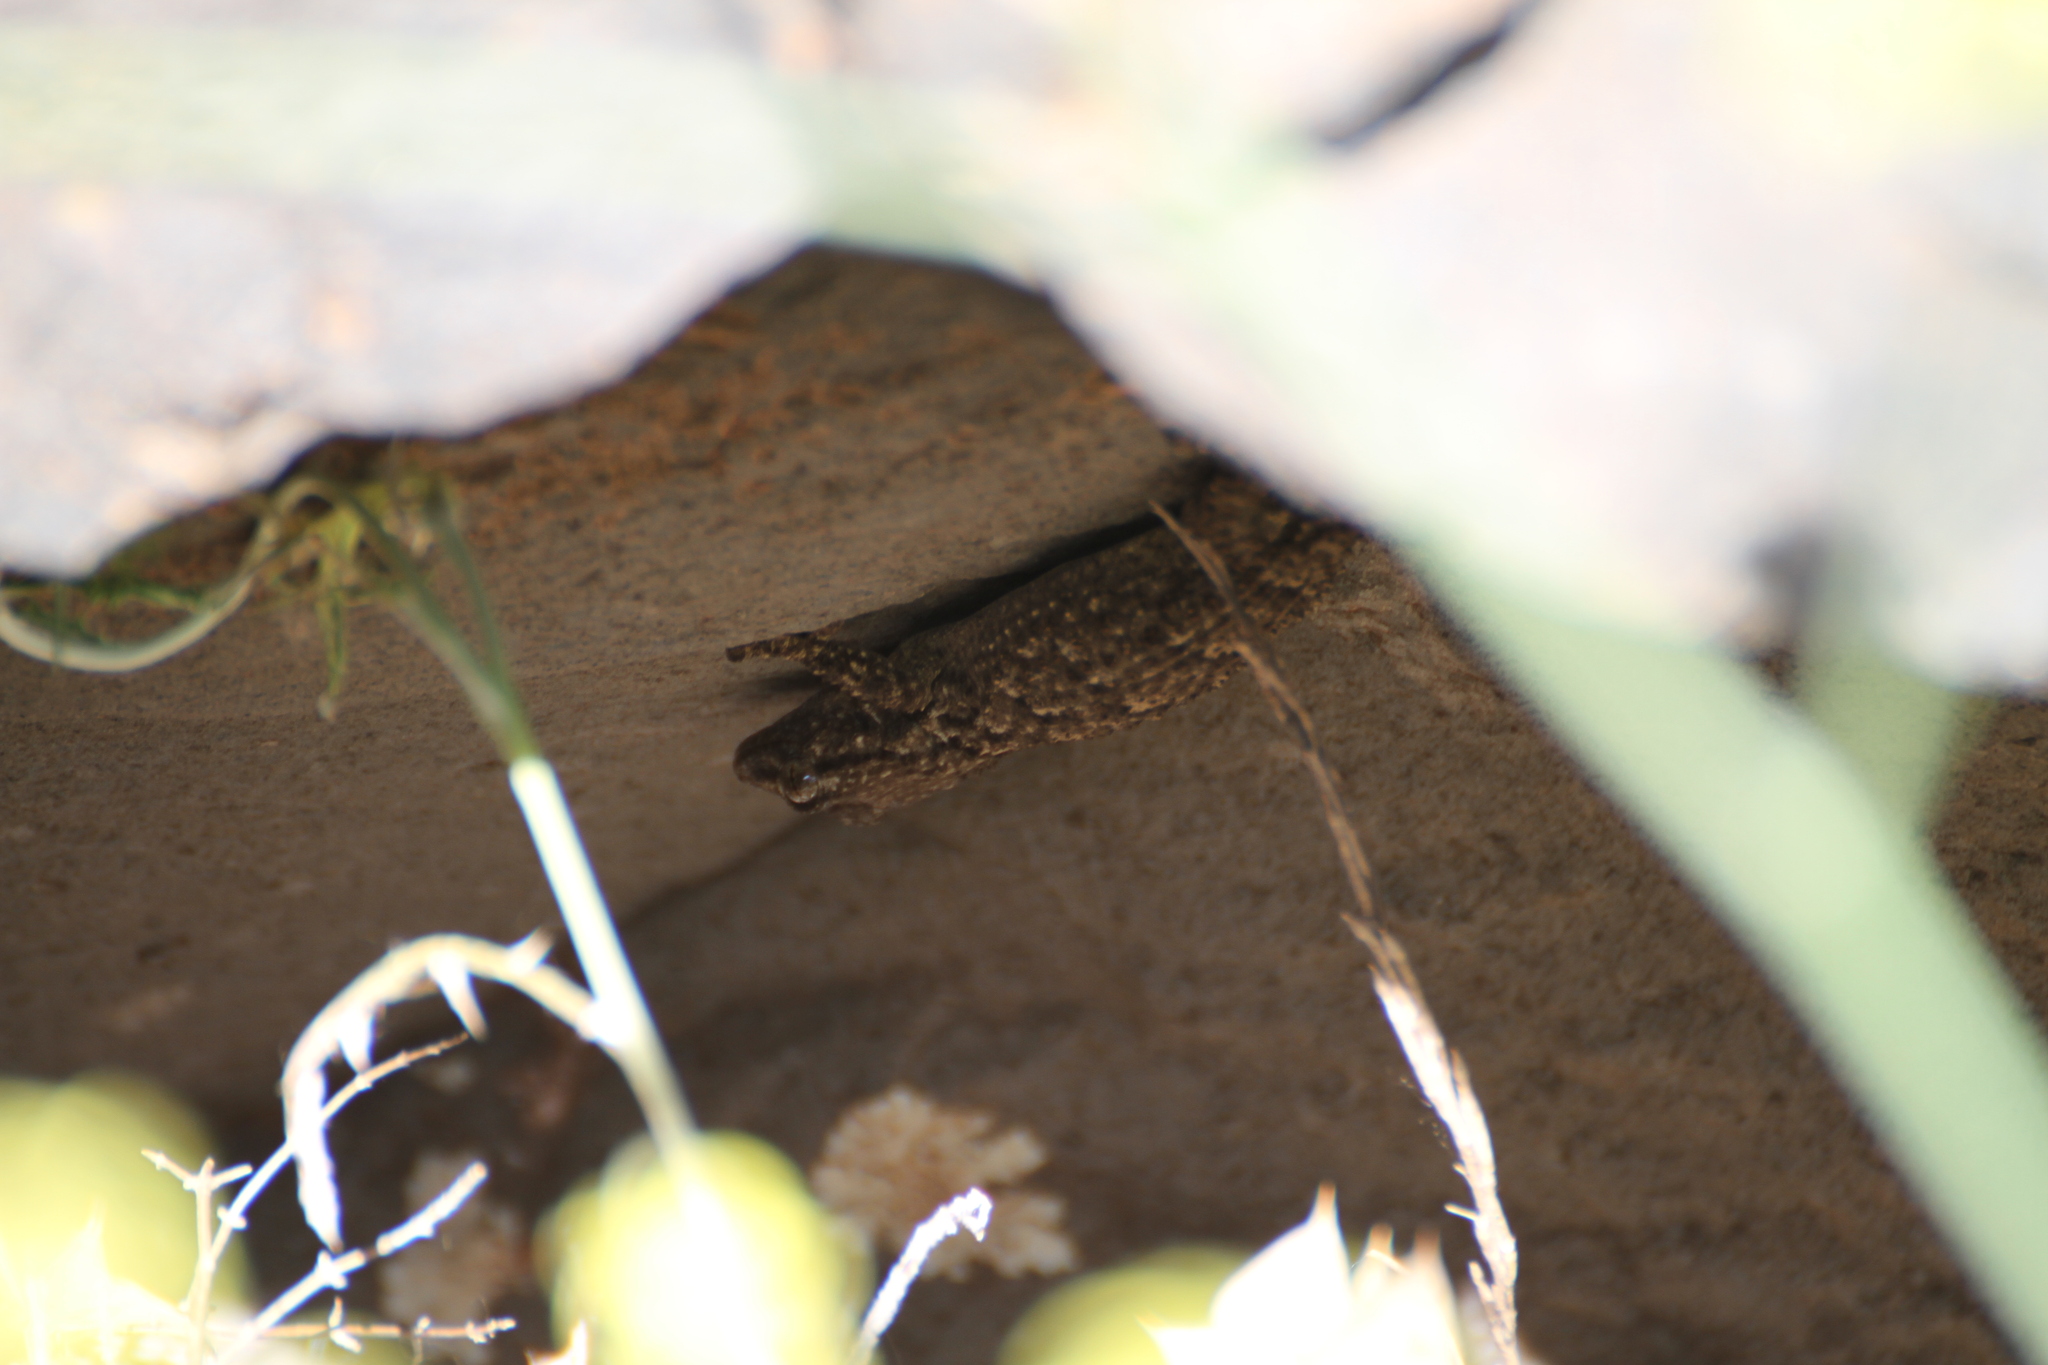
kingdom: Animalia
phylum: Chordata
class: Squamata
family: Phyllodactylidae
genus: Tarentola
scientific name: Tarentola mauritanica
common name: Moorish gecko
